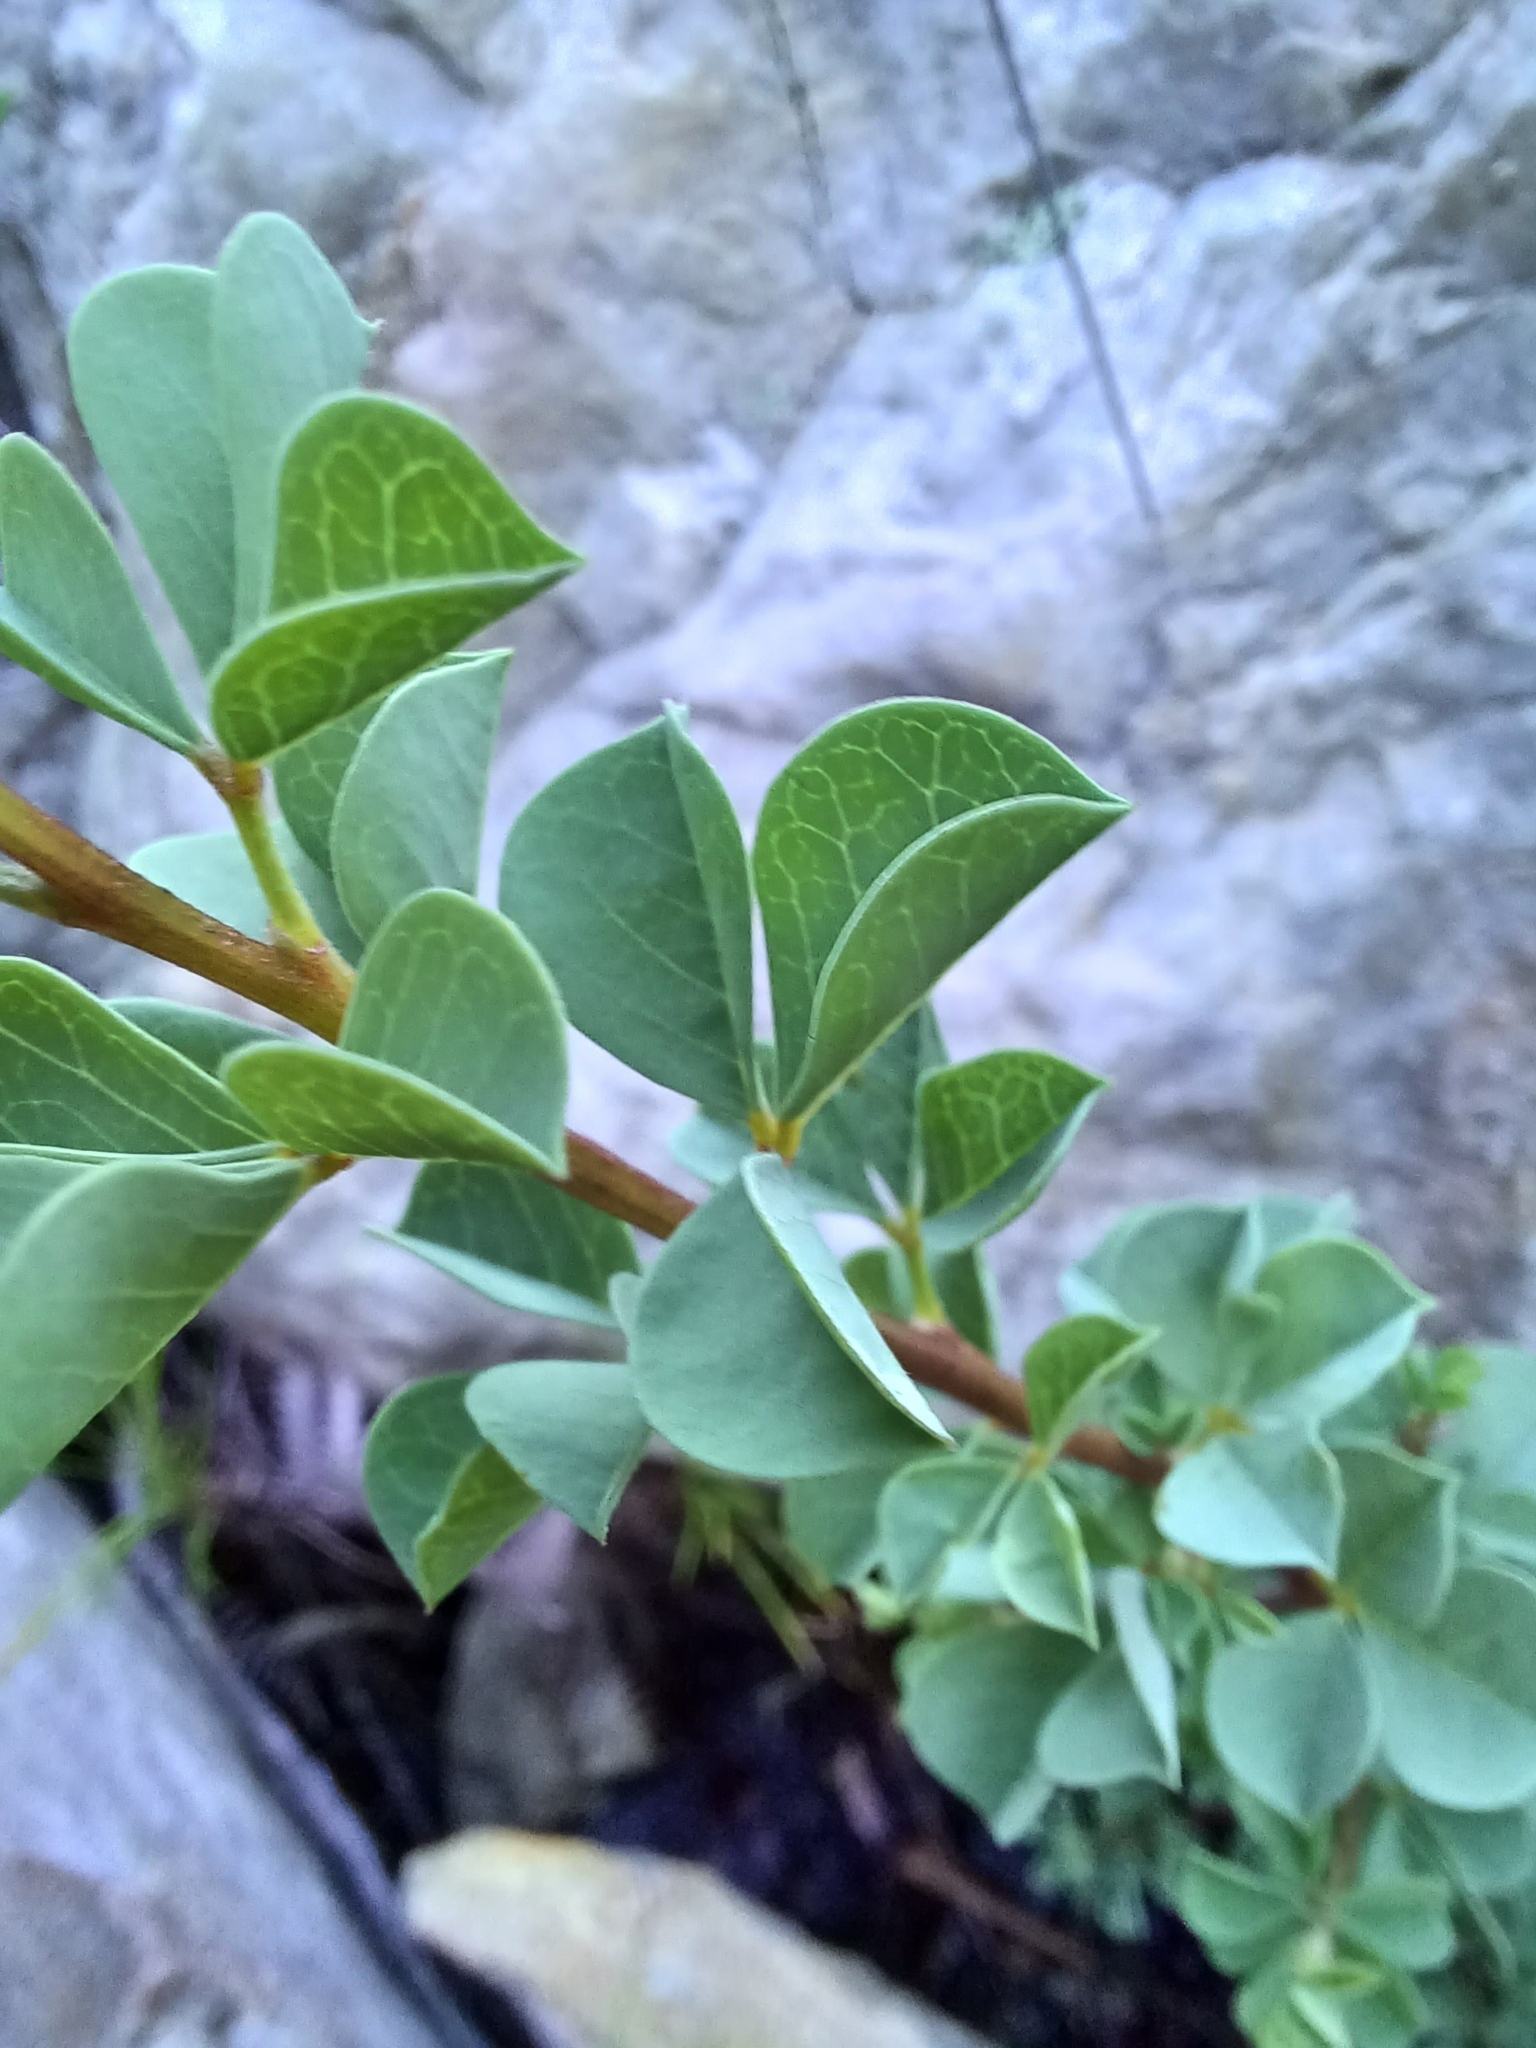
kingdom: Plantae
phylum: Tracheophyta
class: Magnoliopsida
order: Fabales
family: Fabaceae
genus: Hypocalyptus
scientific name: Hypocalyptus sophoroides
